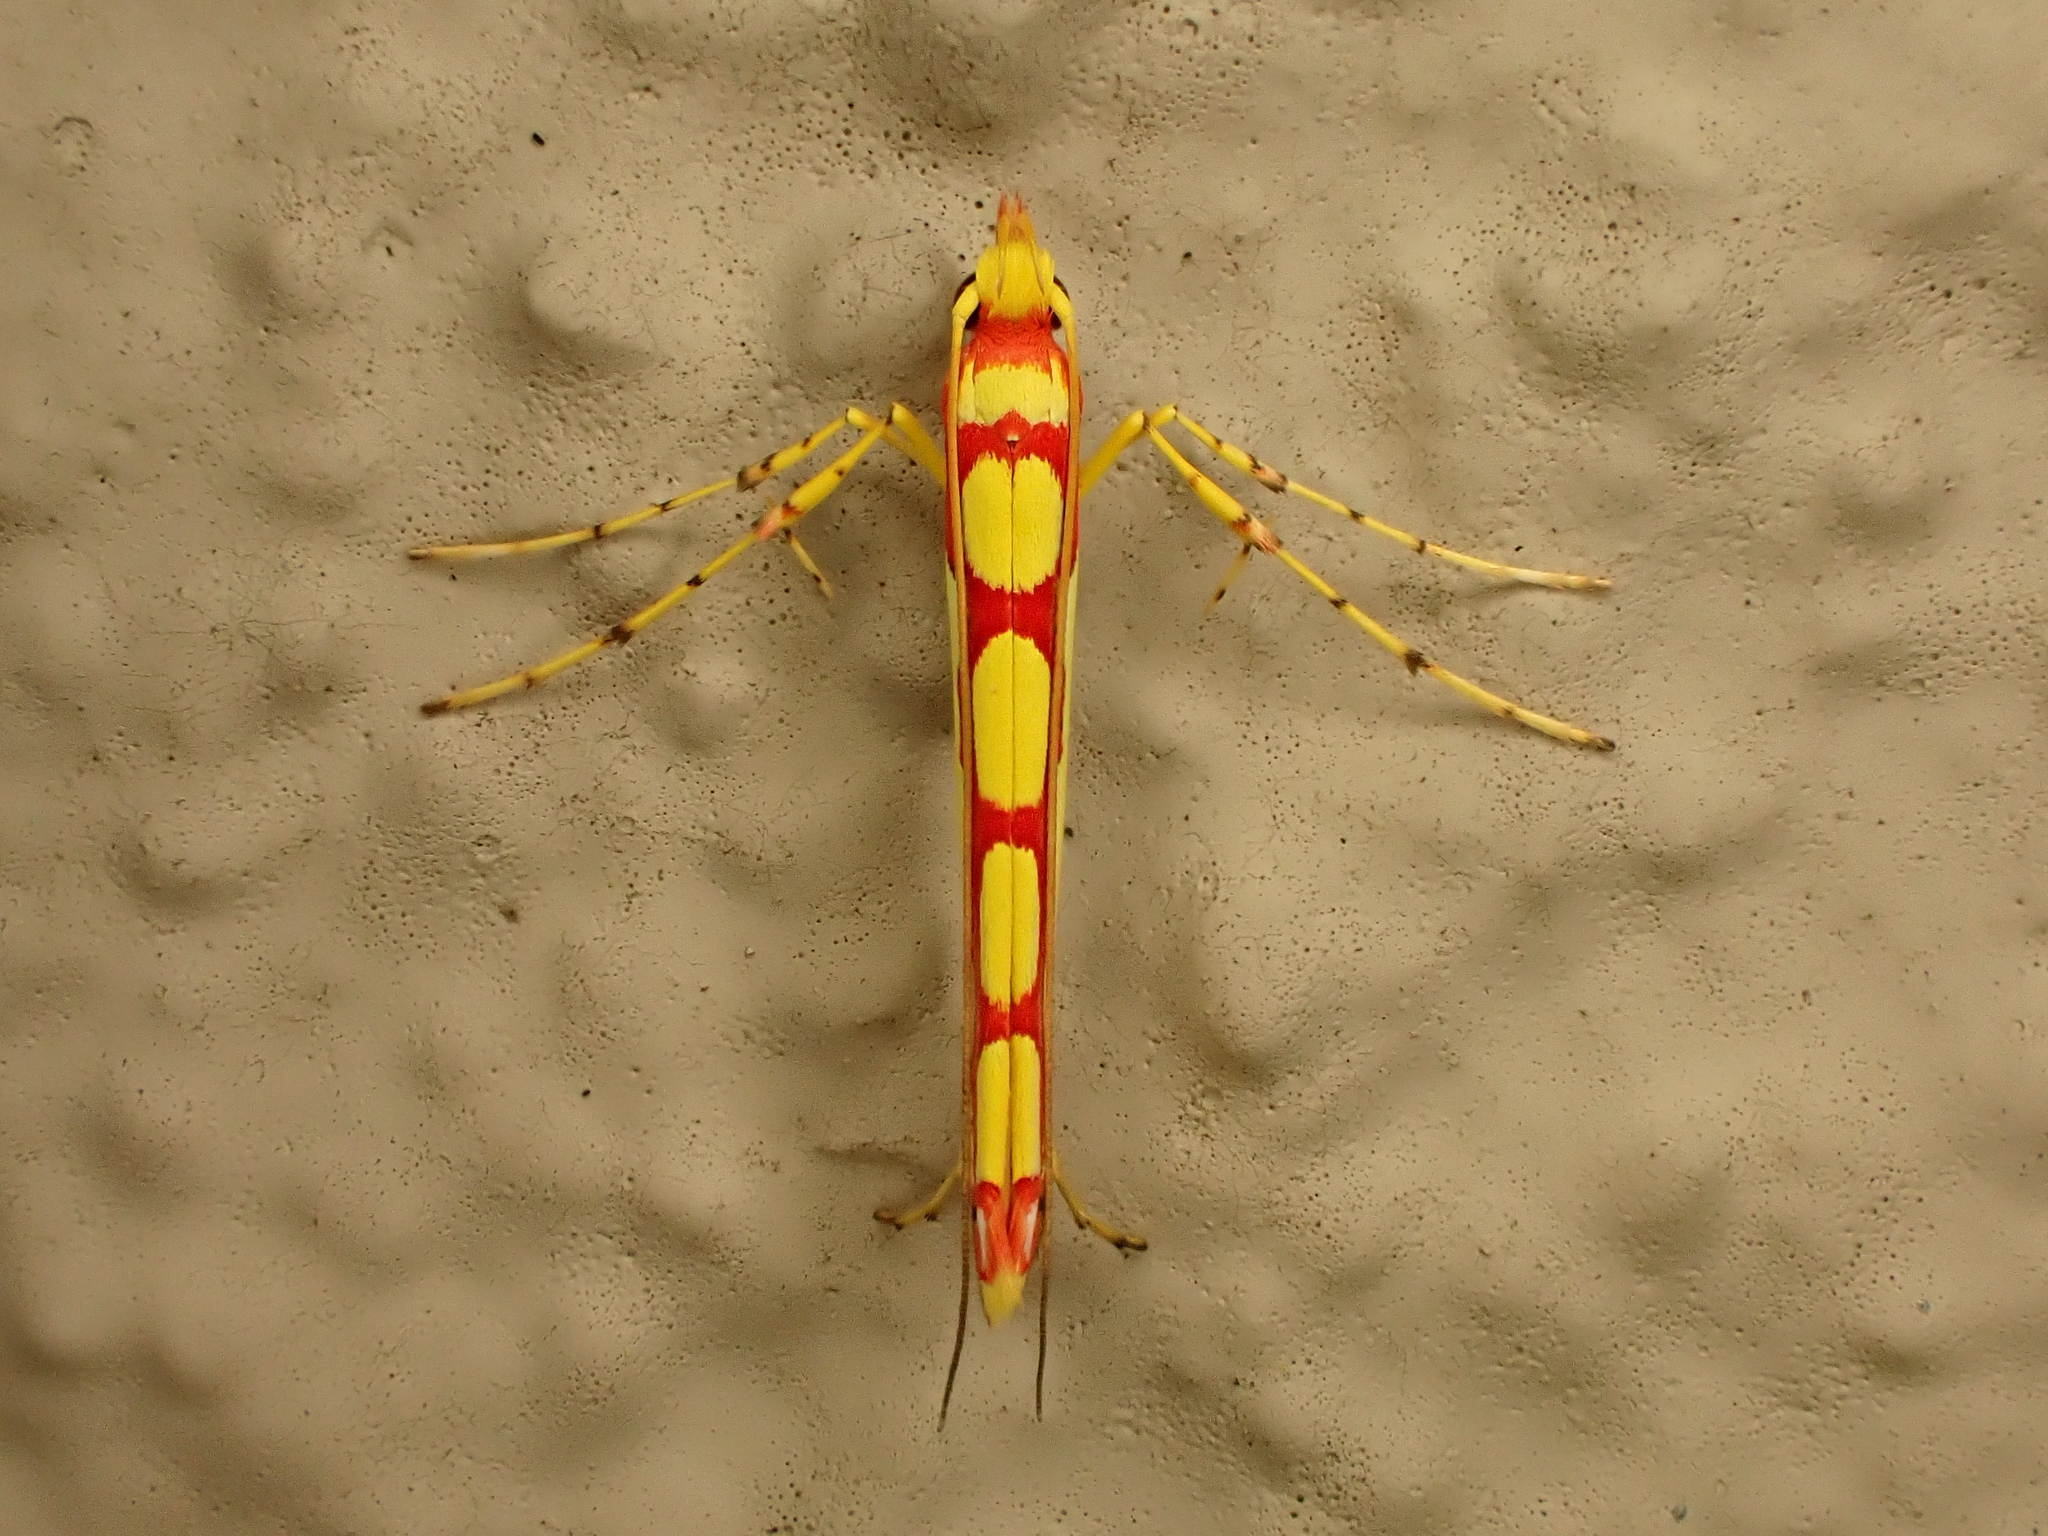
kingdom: Animalia
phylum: Arthropoda
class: Insecta
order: Lepidoptera
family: Gracillariidae
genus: Macarostola
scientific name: Macarostola miniella
